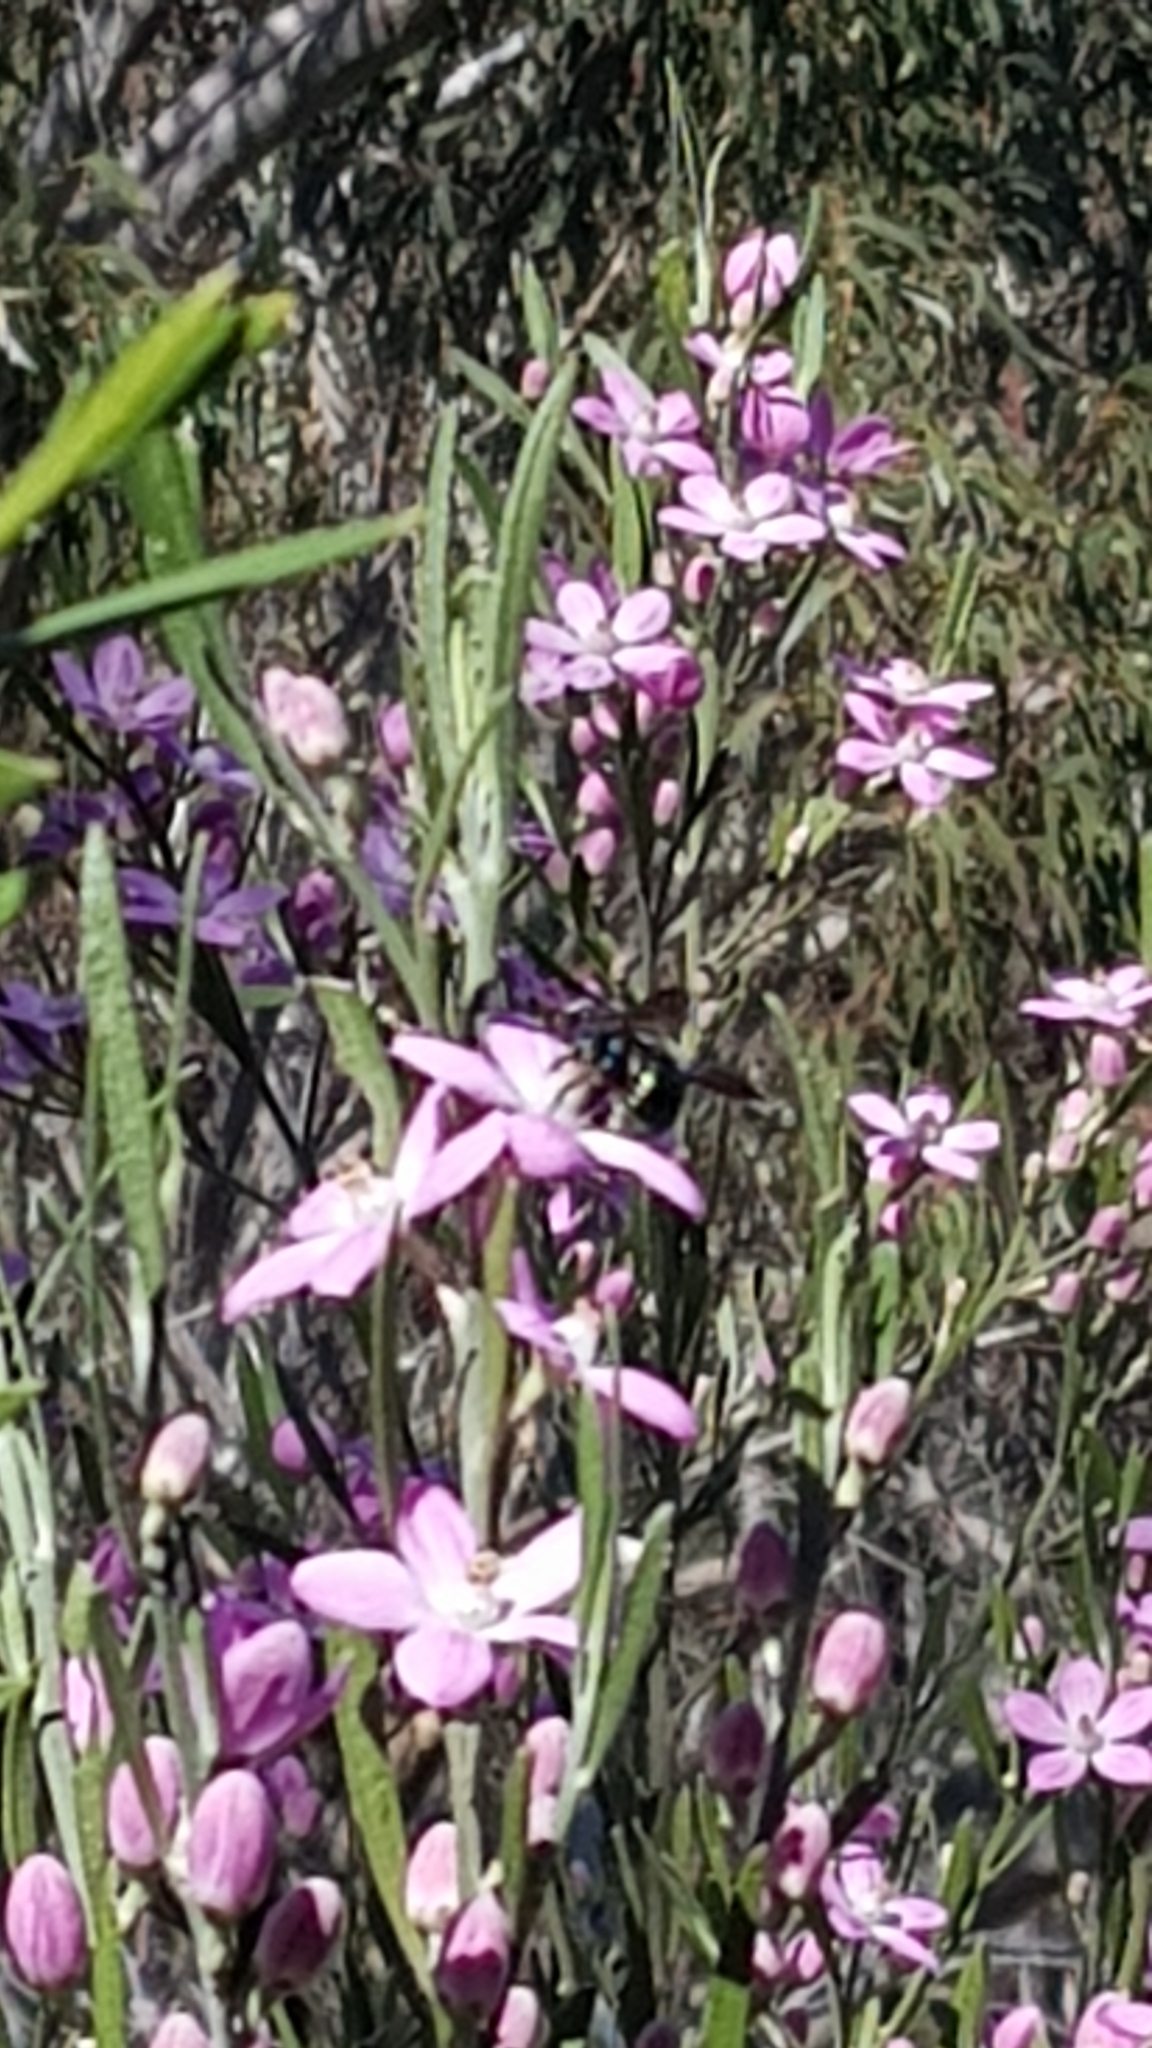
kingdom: Plantae
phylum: Tracheophyta
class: Magnoliopsida
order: Sapindales
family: Rutaceae
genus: Eriostemon
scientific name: Eriostemon australasius
